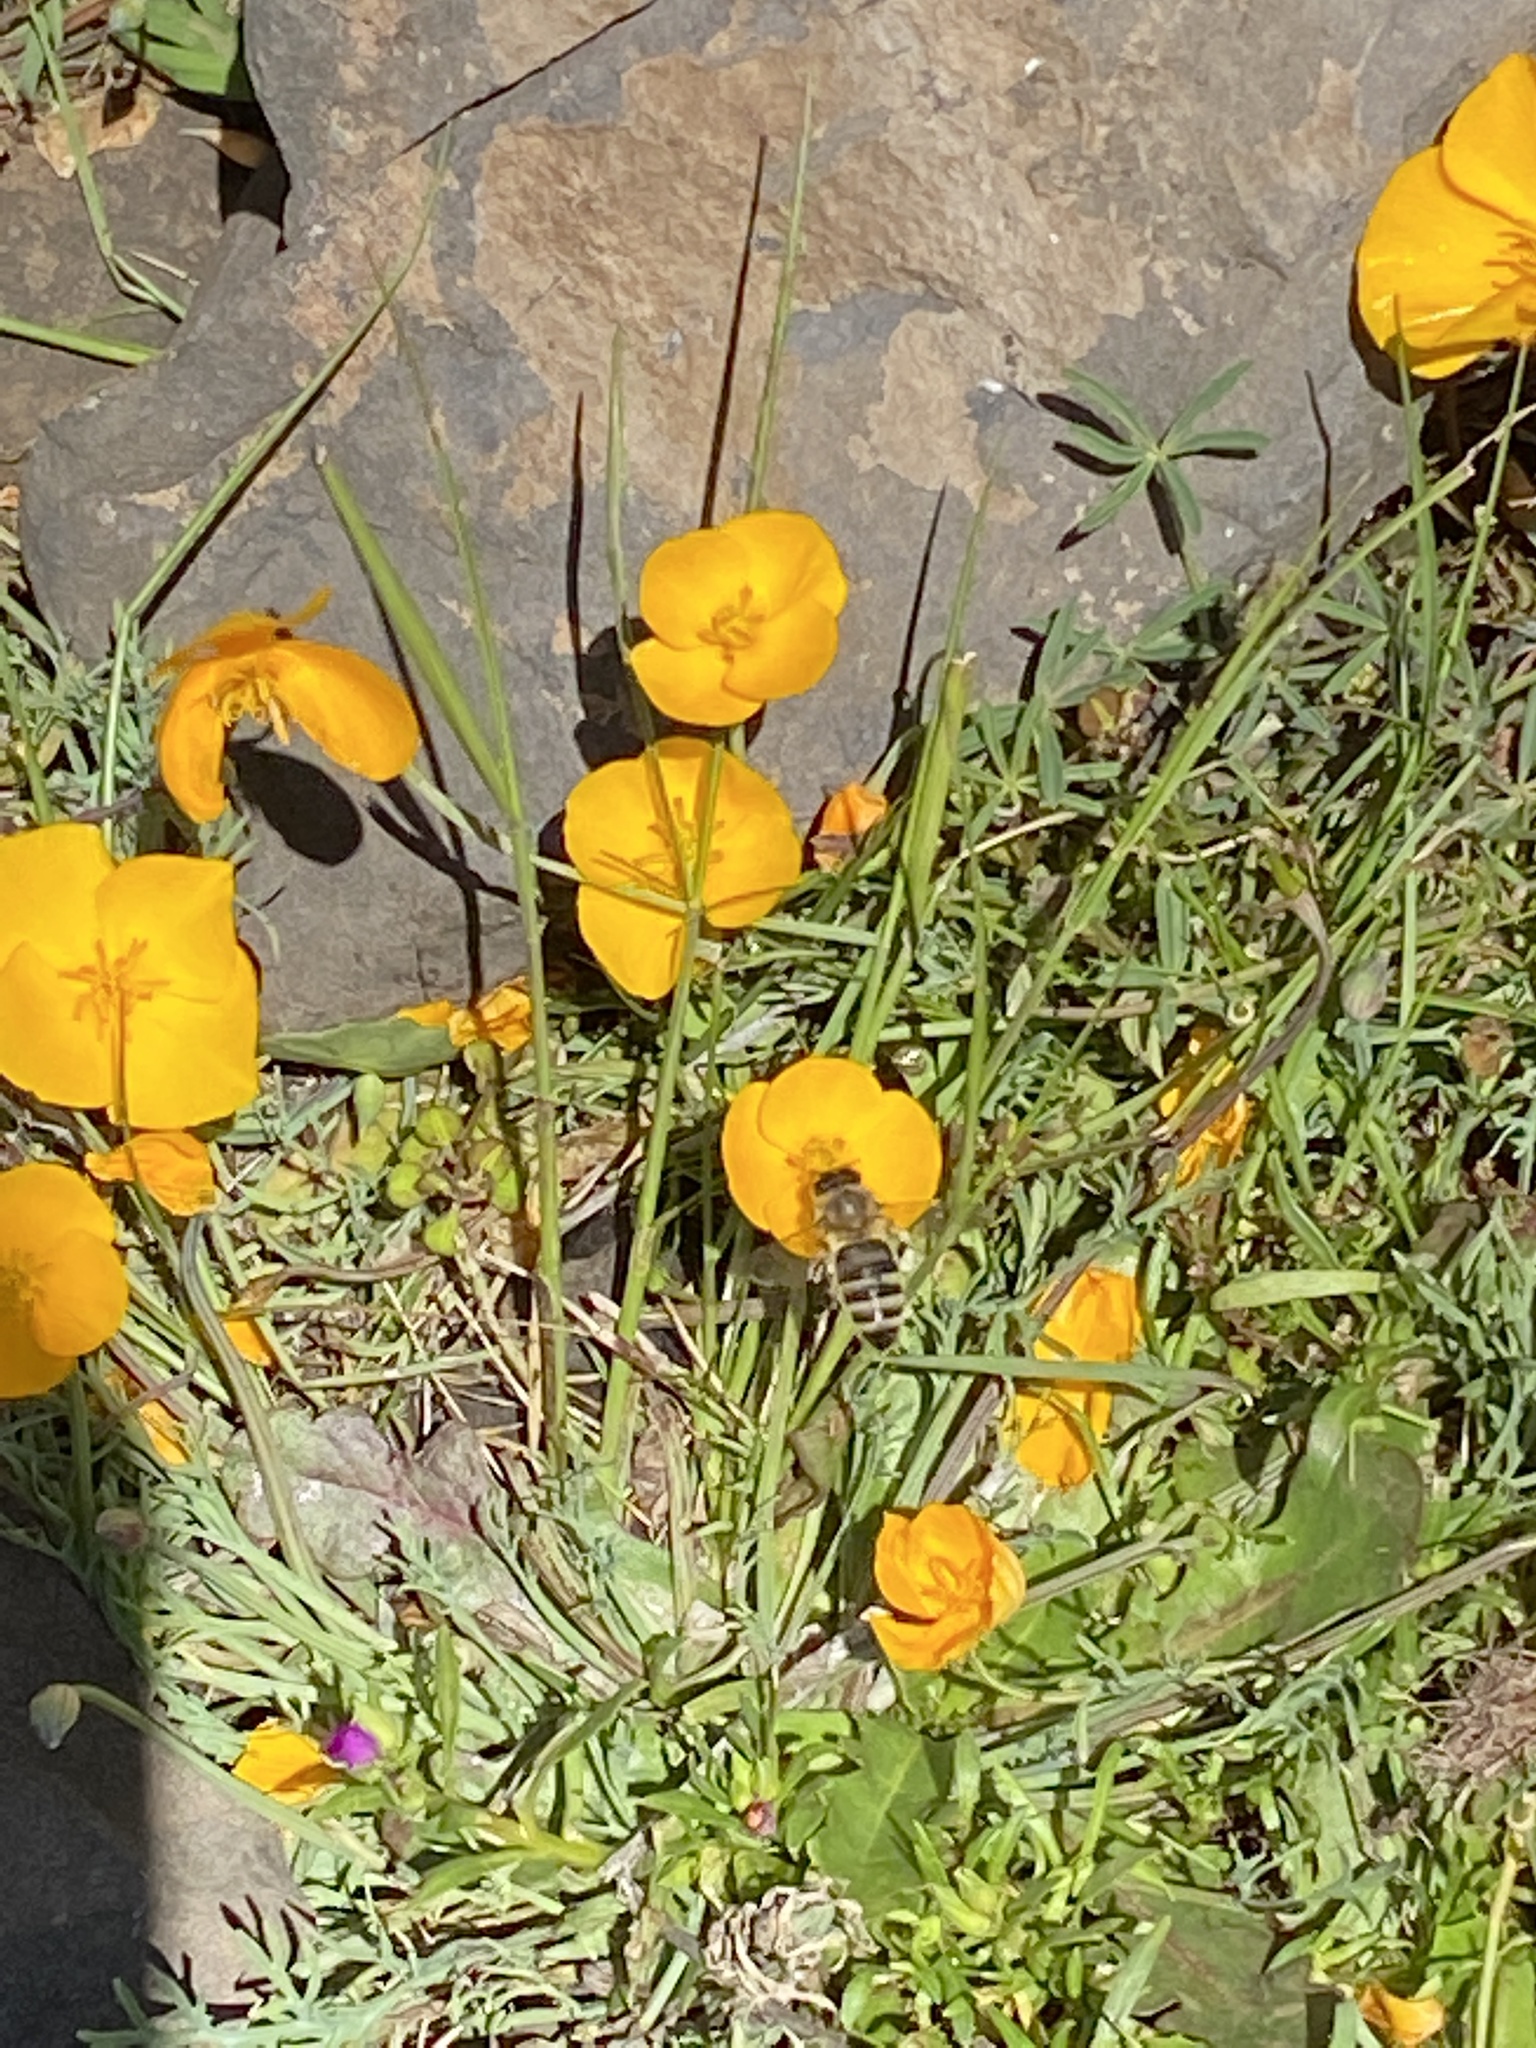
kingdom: Animalia
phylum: Arthropoda
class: Insecta
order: Hymenoptera
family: Apidae
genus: Apis
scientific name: Apis mellifera
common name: Honey bee
